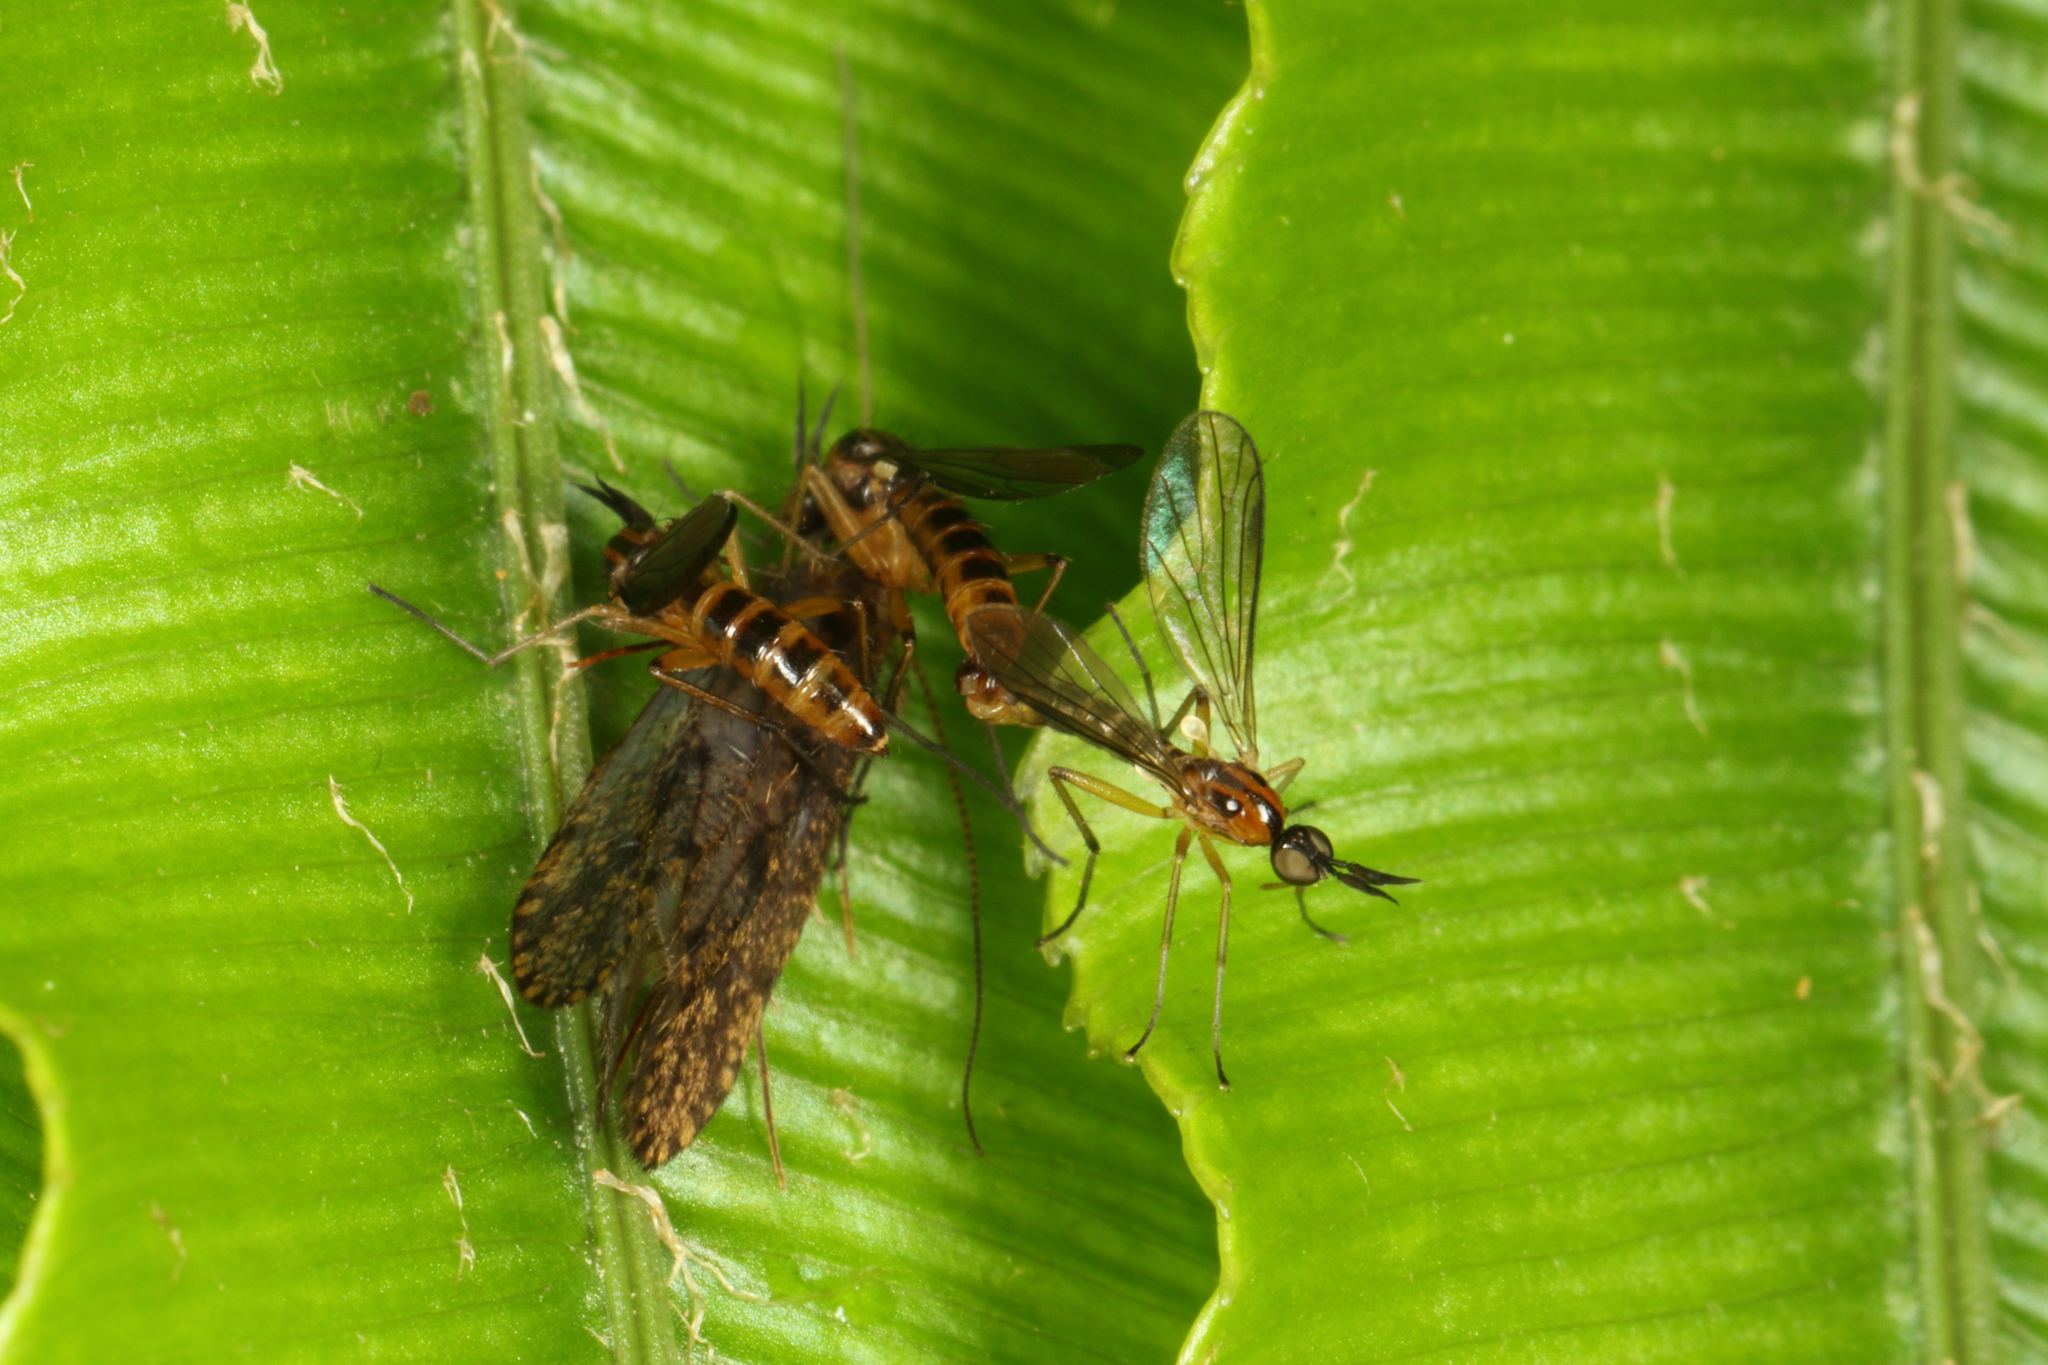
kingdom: Animalia
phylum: Arthropoda
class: Insecta
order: Diptera
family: Brachystomatidae
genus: Ceratomerus
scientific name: Ceratomerus virgatus
